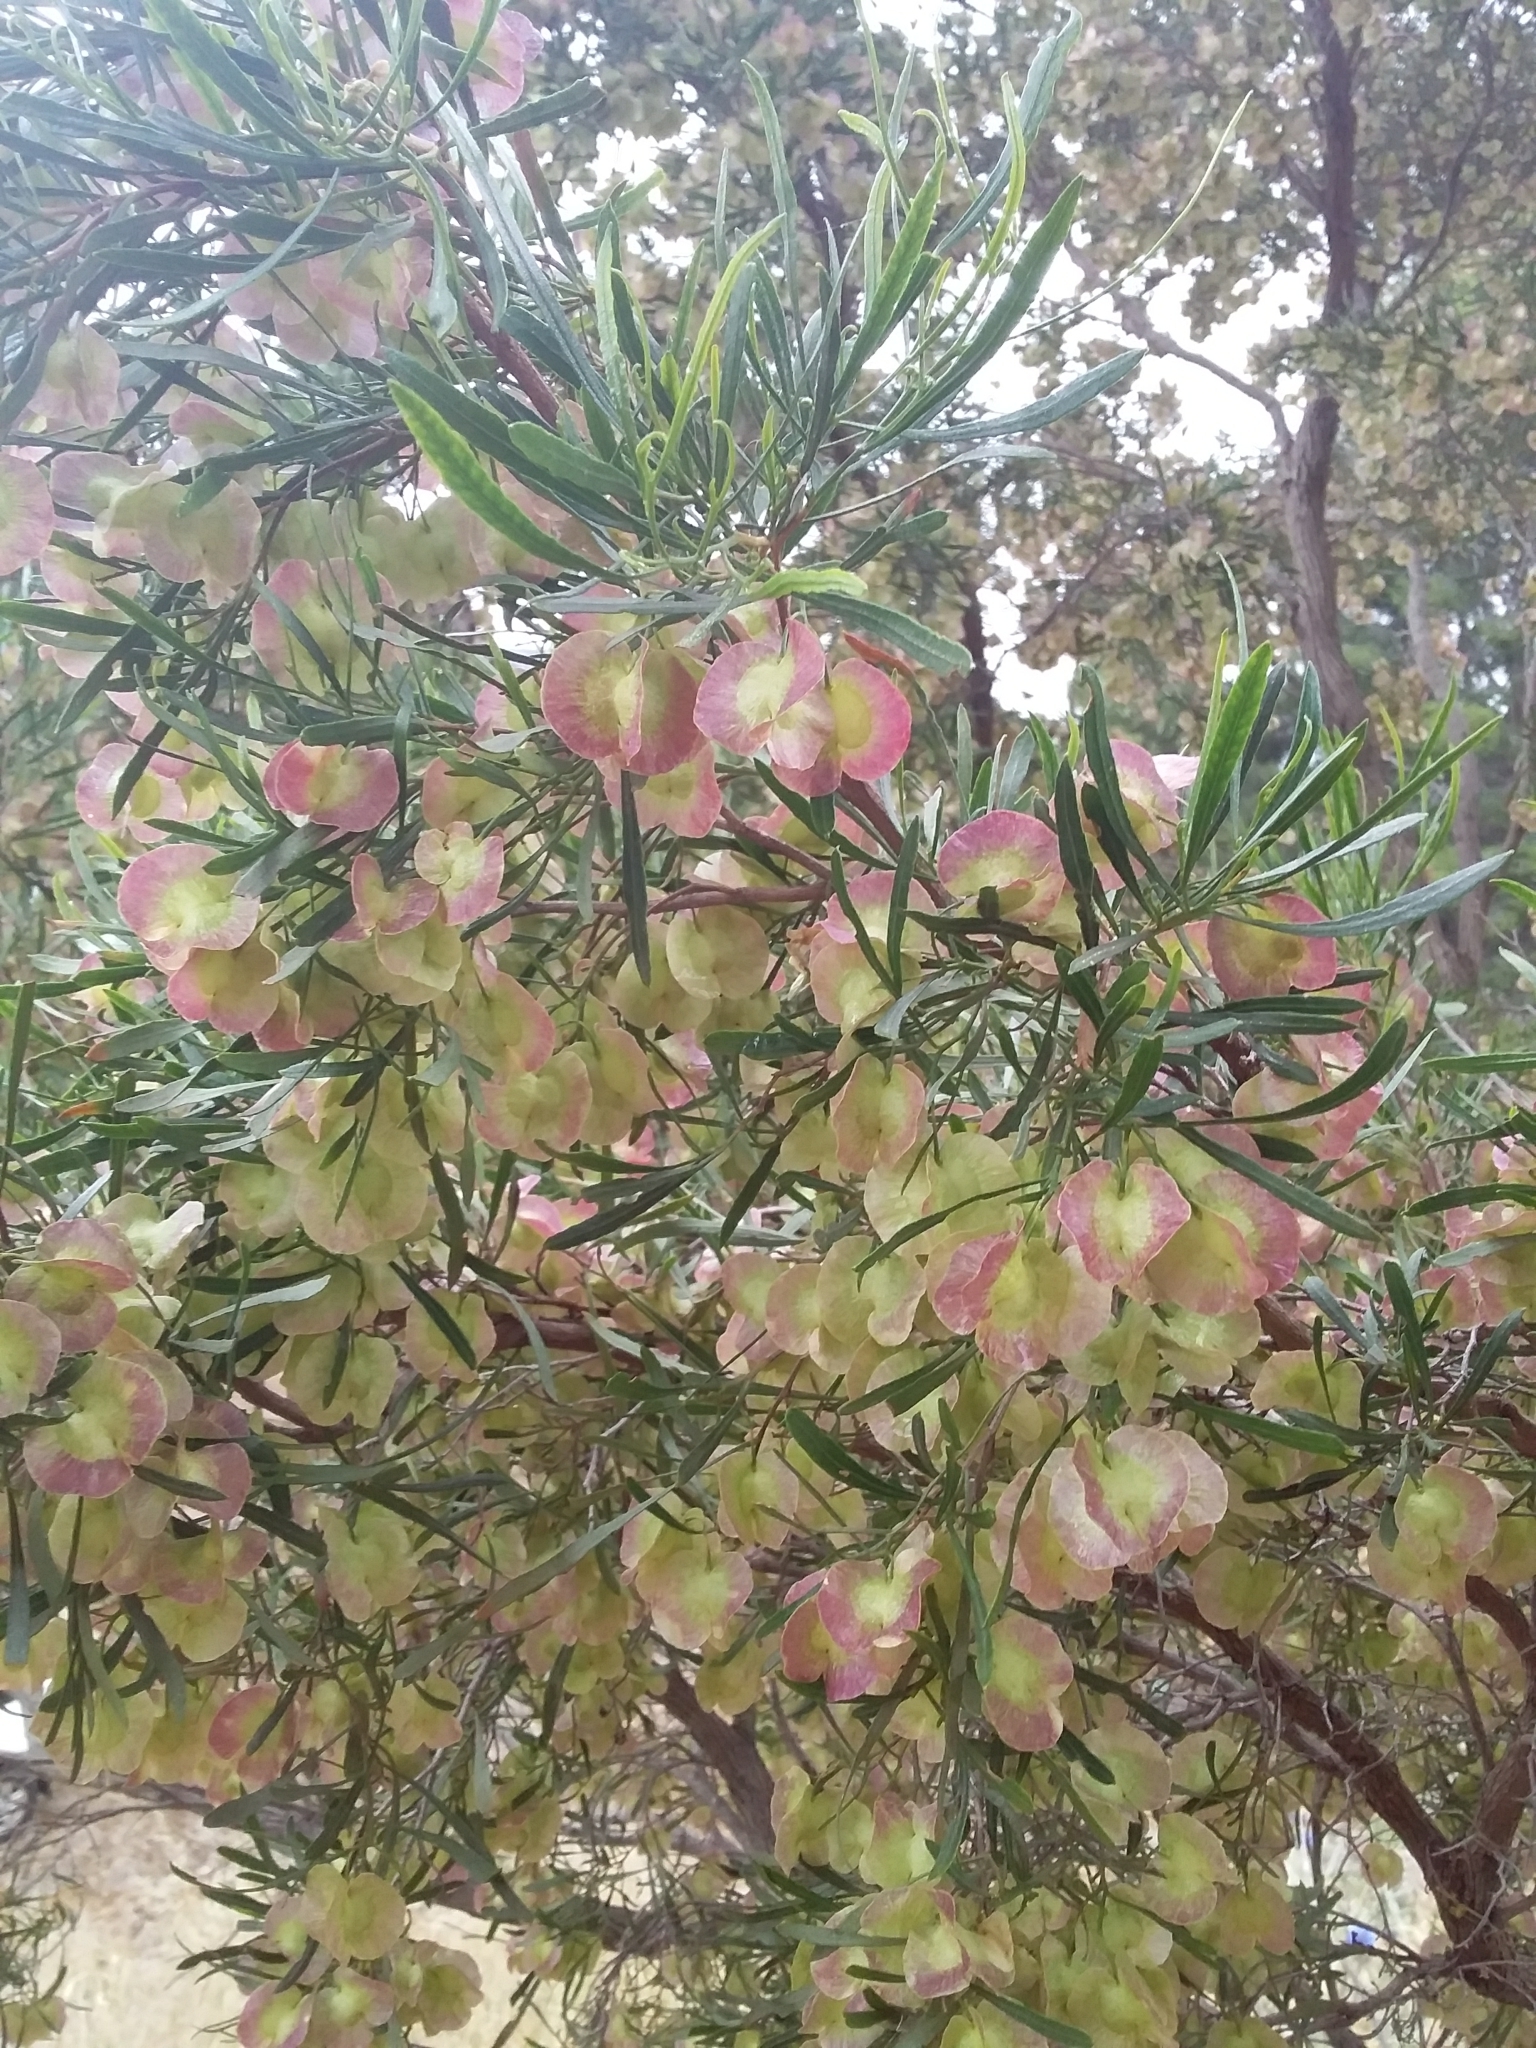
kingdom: Plantae
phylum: Tracheophyta
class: Magnoliopsida
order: Sapindales
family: Sapindaceae
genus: Dodonaea
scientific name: Dodonaea viscosa
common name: Hopbush
